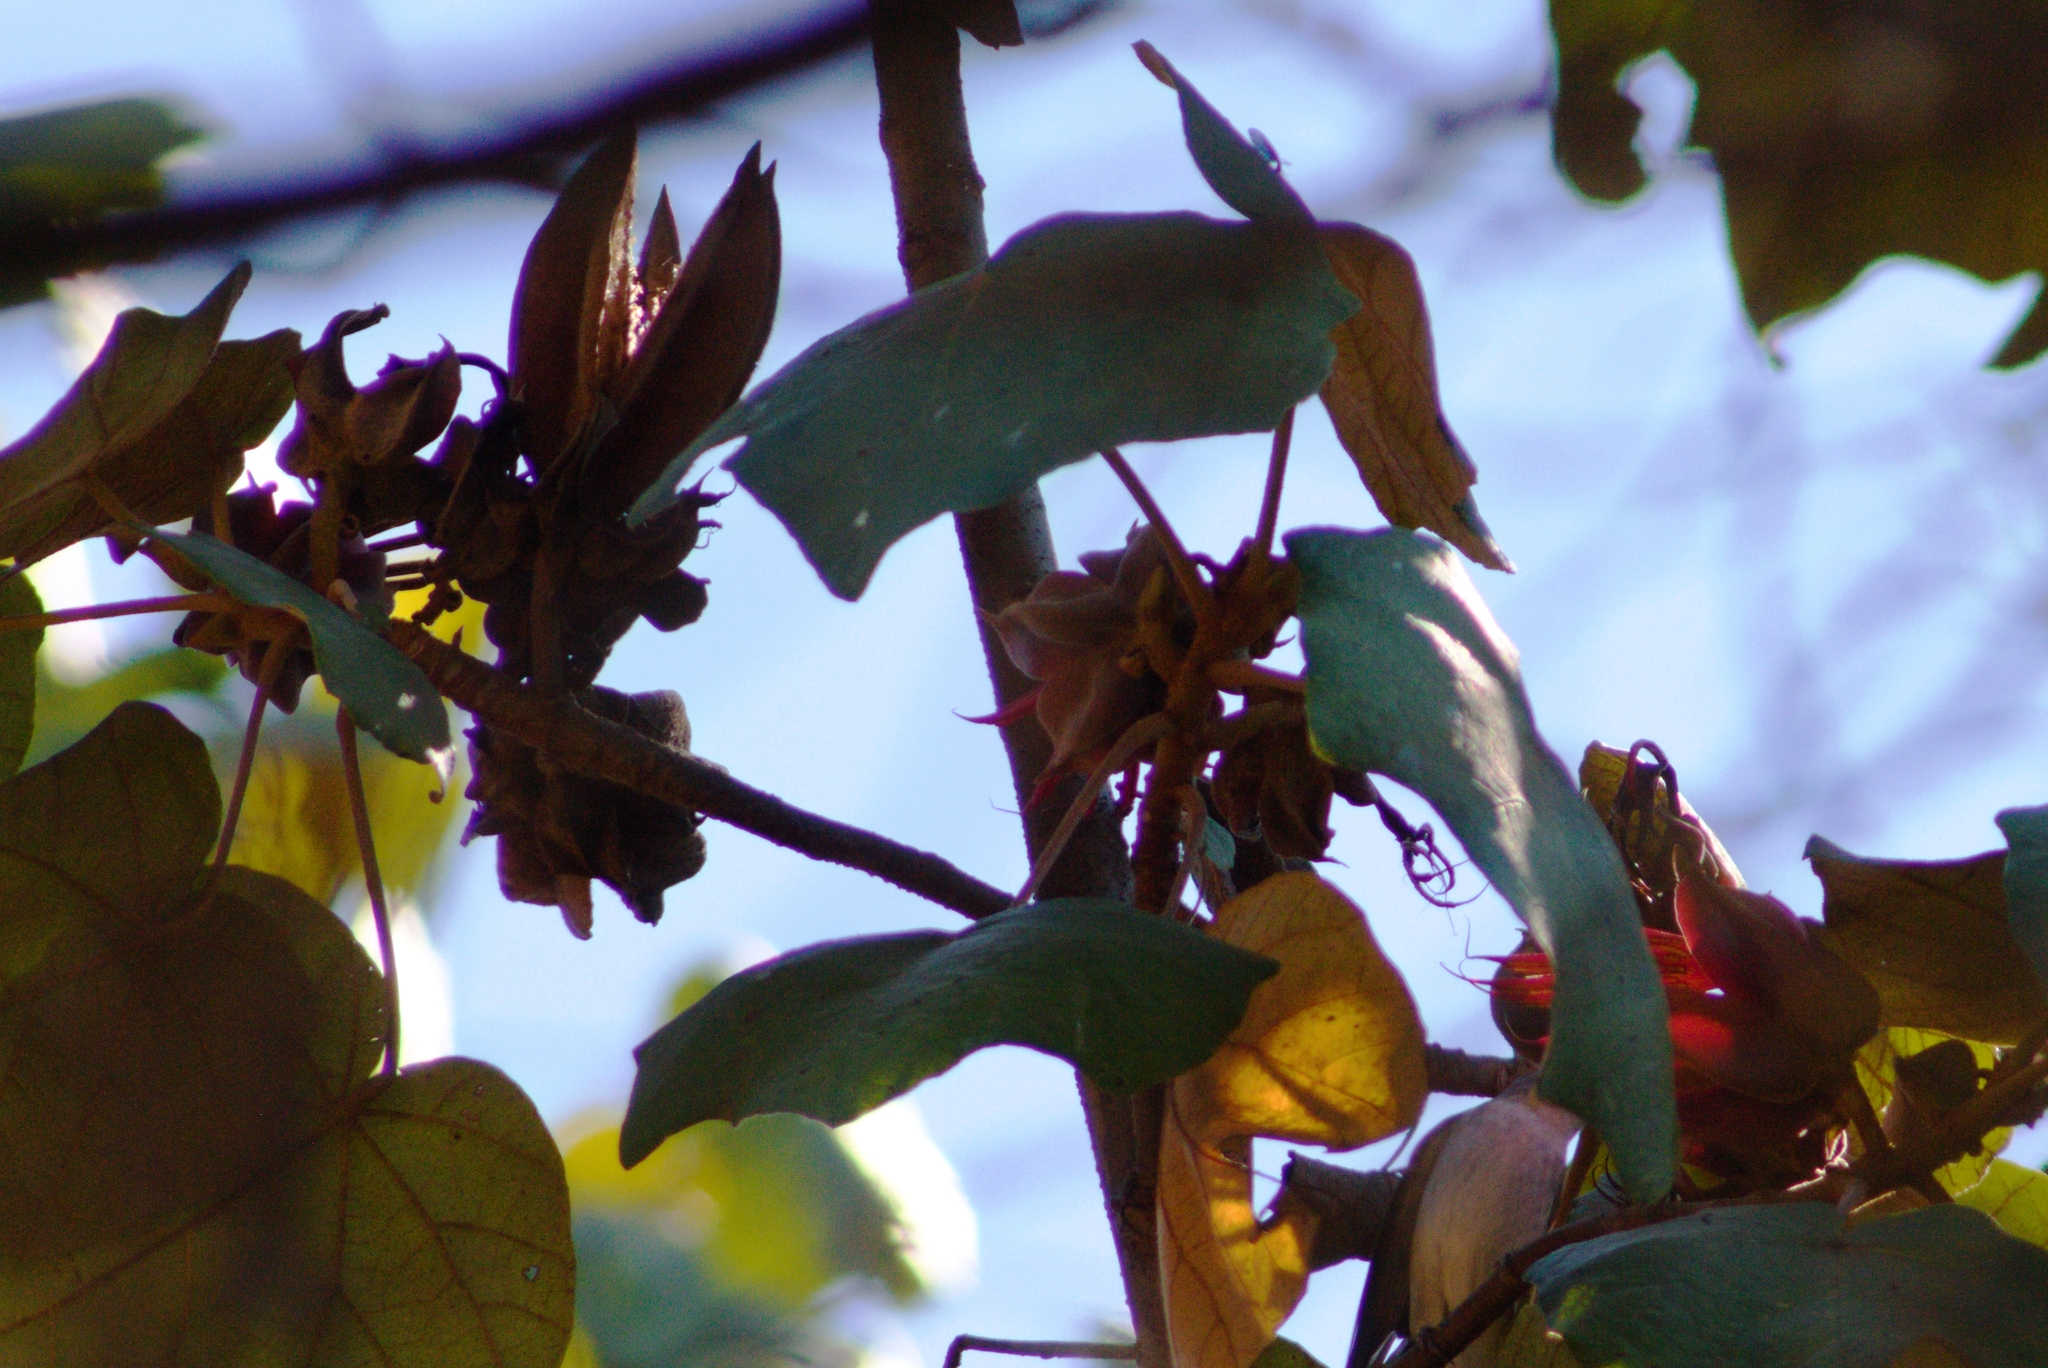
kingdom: Plantae
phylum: Tracheophyta
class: Magnoliopsida
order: Malvales
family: Malvaceae
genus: Chiranthodendron
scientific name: Chiranthodendron pentadactylon
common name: Mexican-hat-plant
